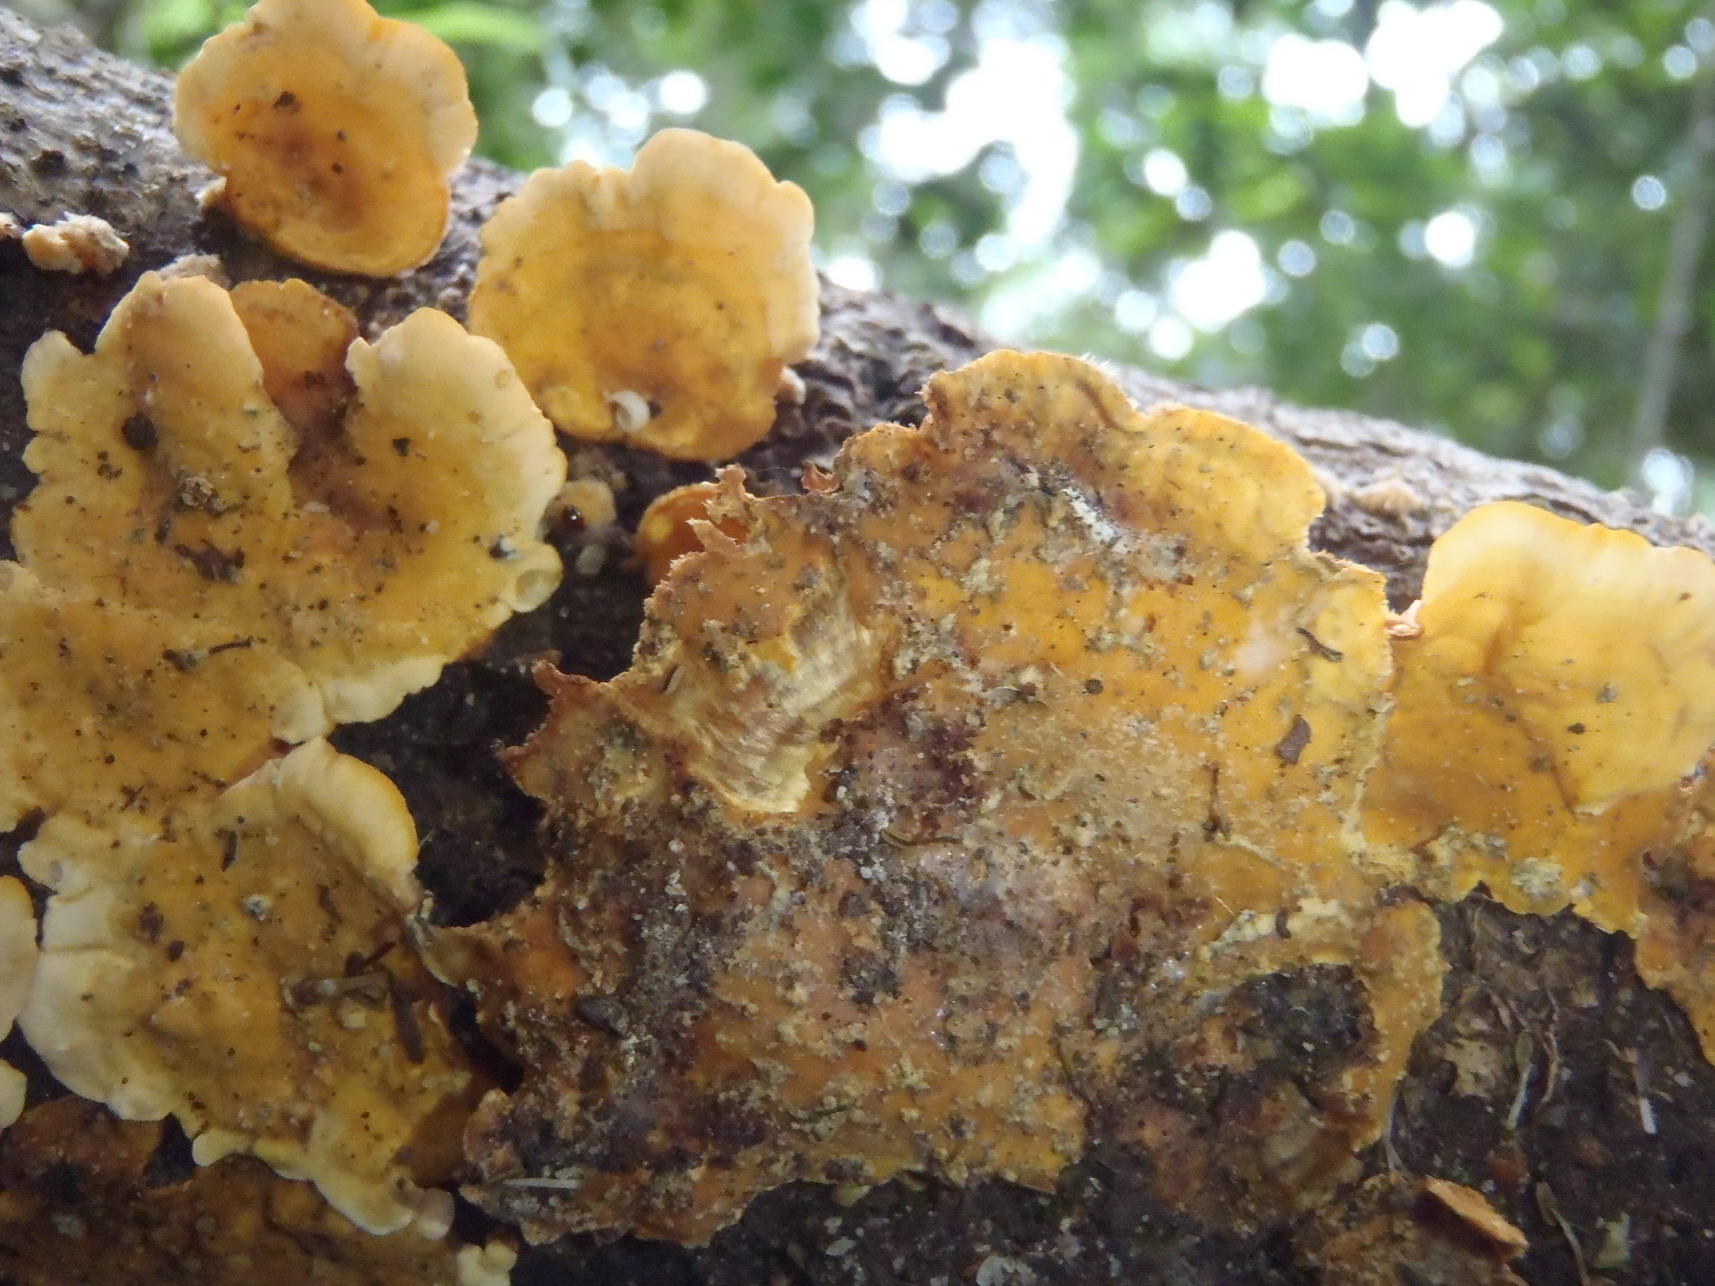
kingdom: Fungi
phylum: Basidiomycota
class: Agaricomycetes
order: Russulales
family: Stereaceae
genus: Stereum
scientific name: Stereum hirsutum
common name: Hairy curtain crust
